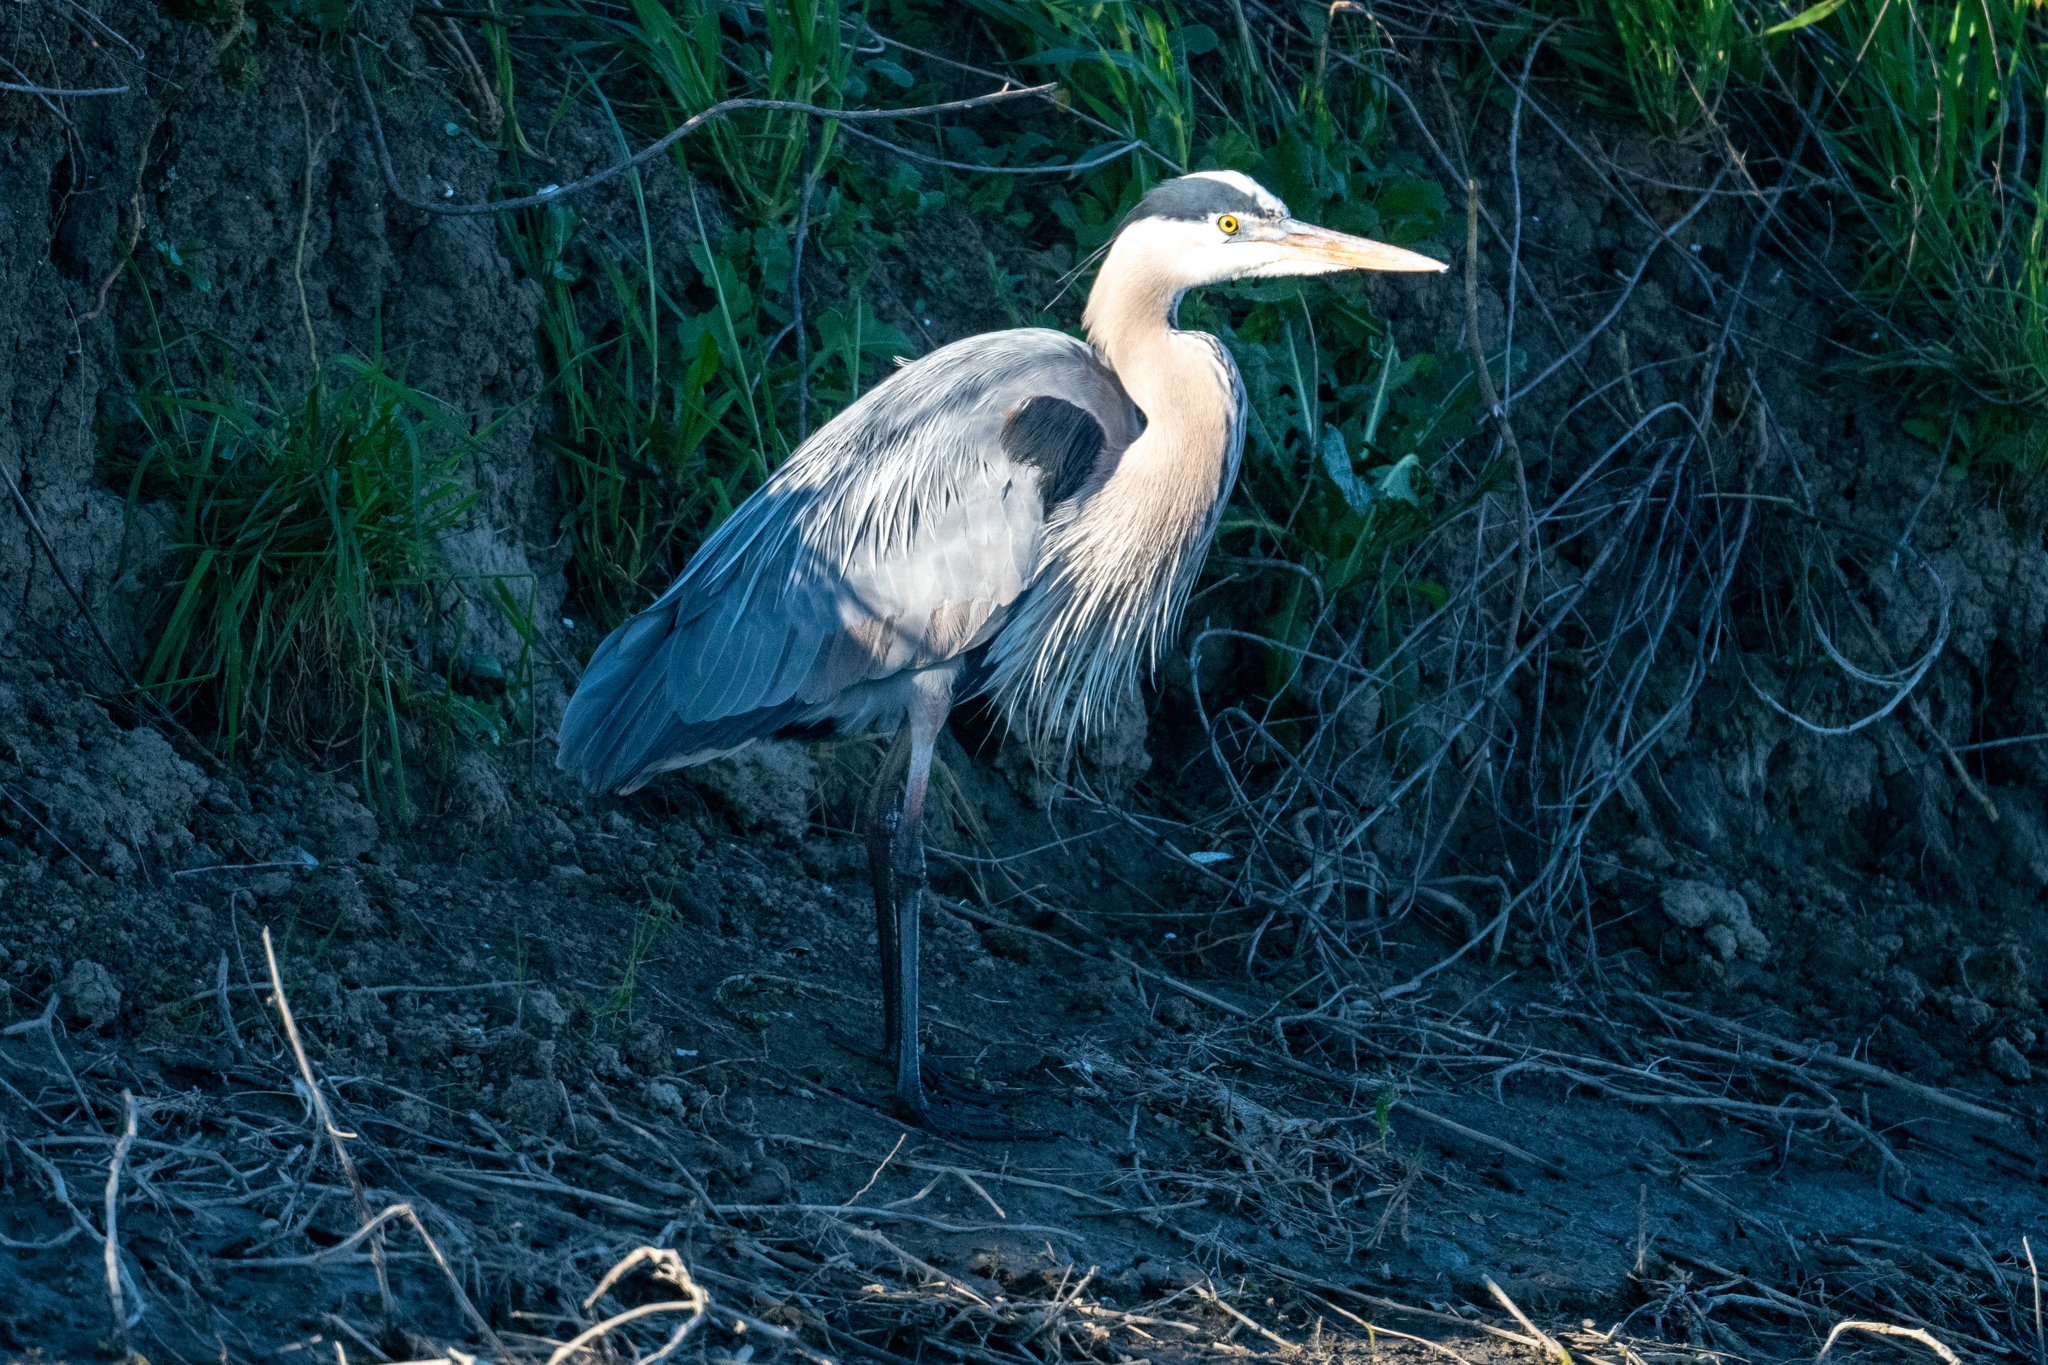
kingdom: Animalia
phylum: Chordata
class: Aves
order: Pelecaniformes
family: Ardeidae
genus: Ardea
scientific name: Ardea herodias
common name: Great blue heron
